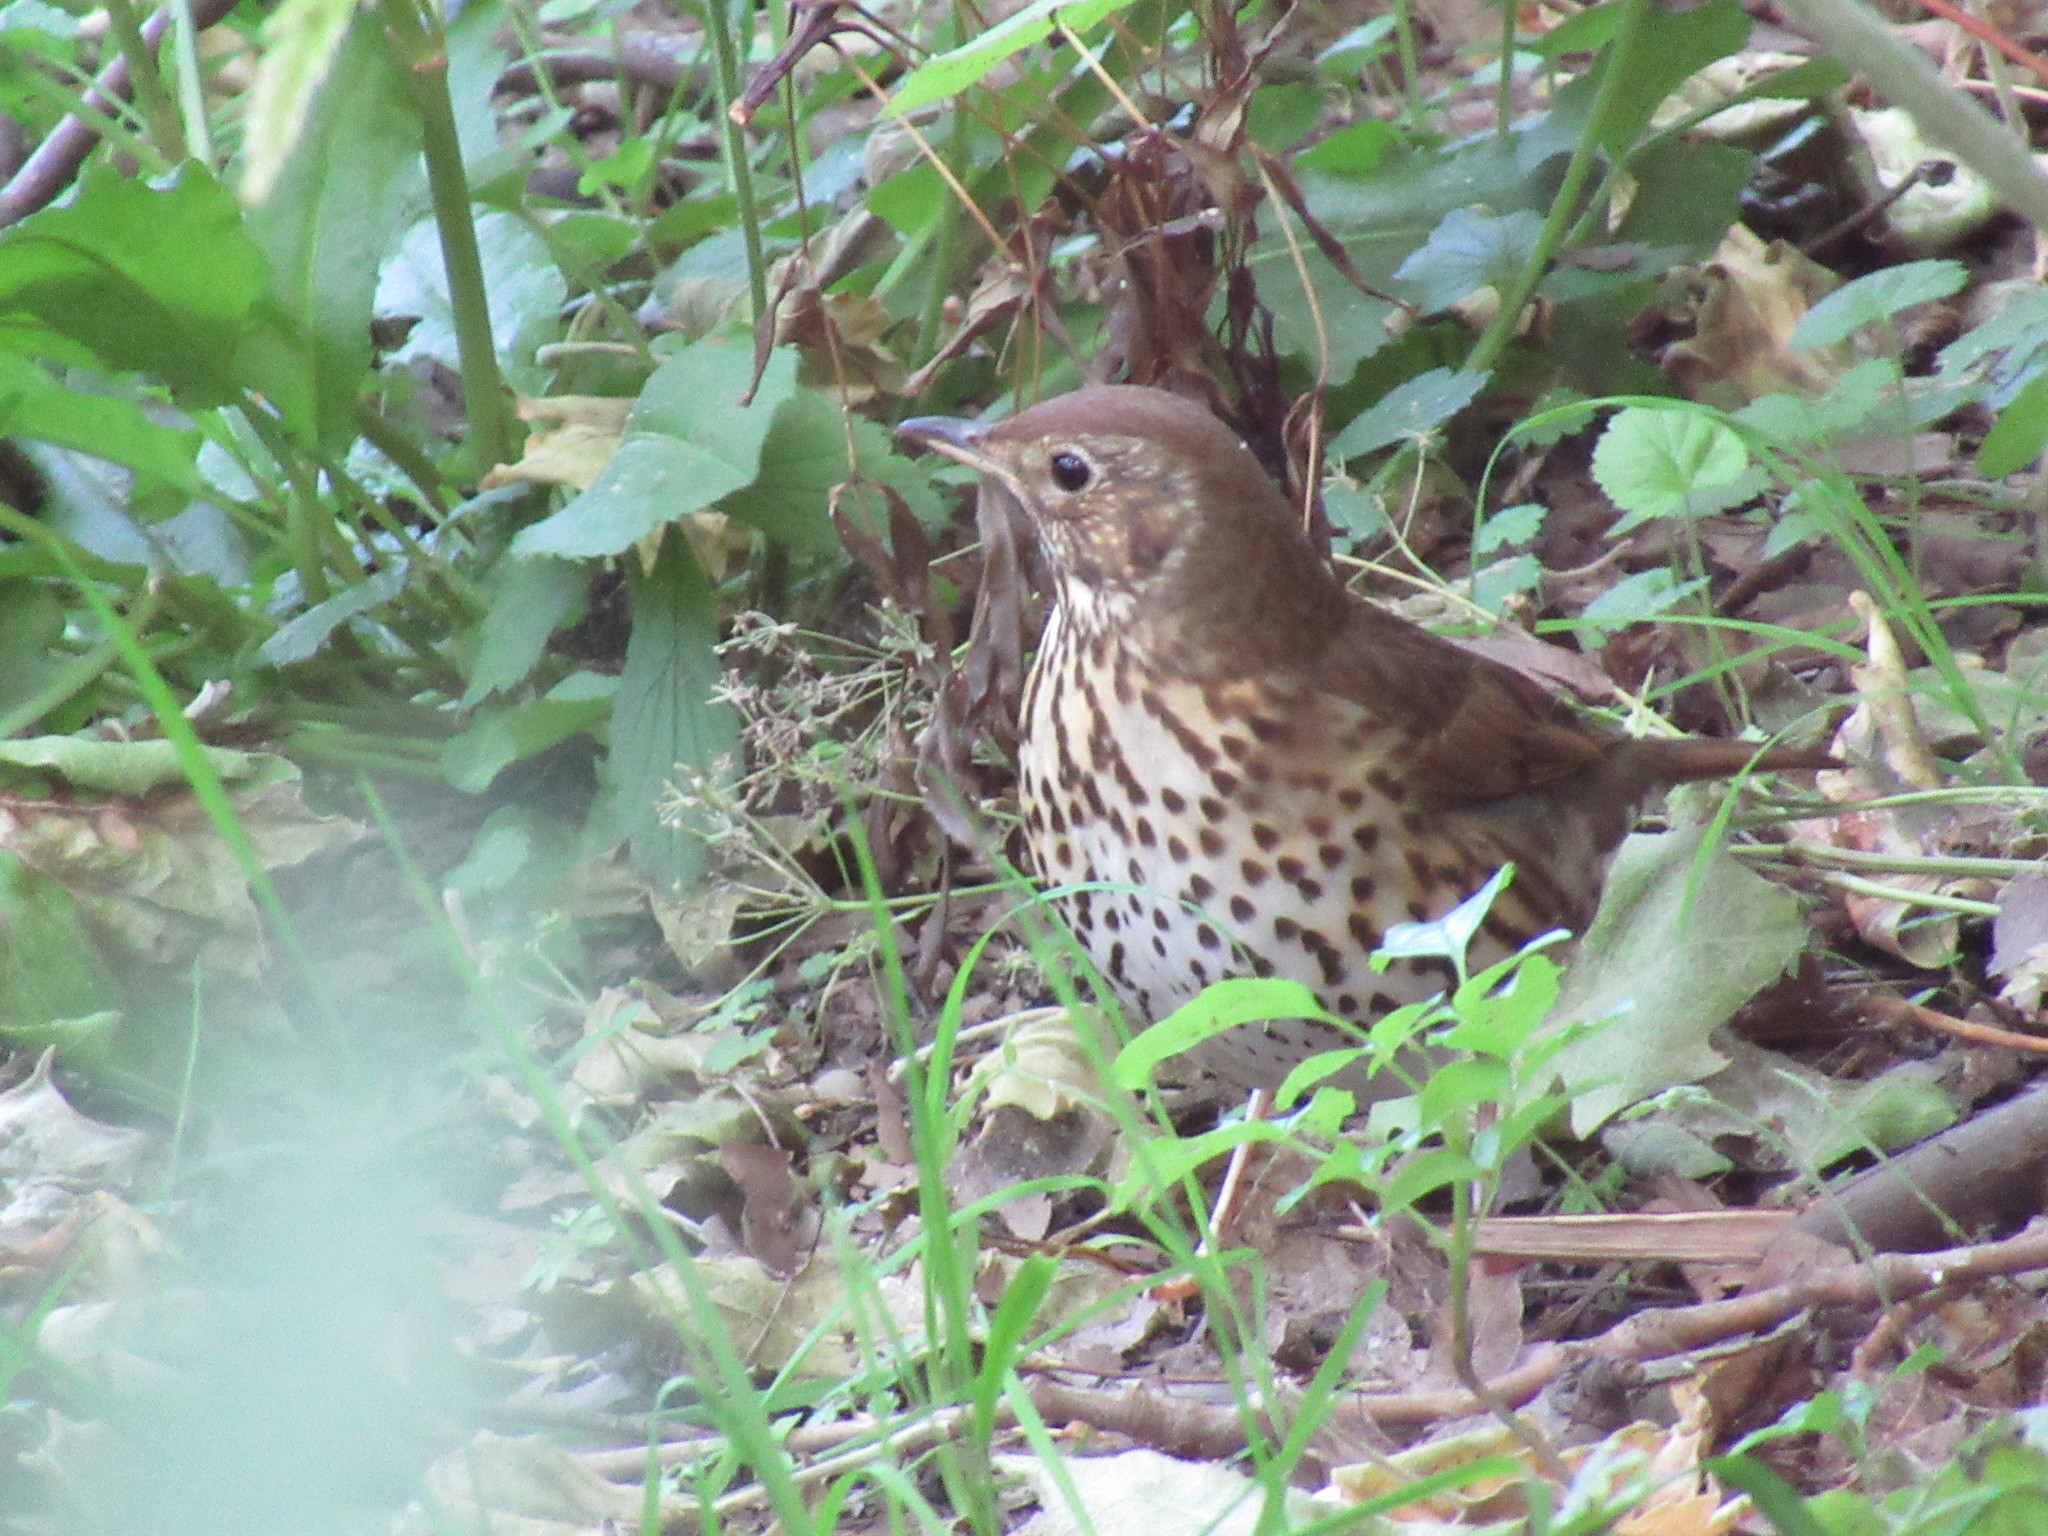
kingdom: Animalia
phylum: Chordata
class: Aves
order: Passeriformes
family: Turdidae
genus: Turdus
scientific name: Turdus philomelos
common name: Song thrush
